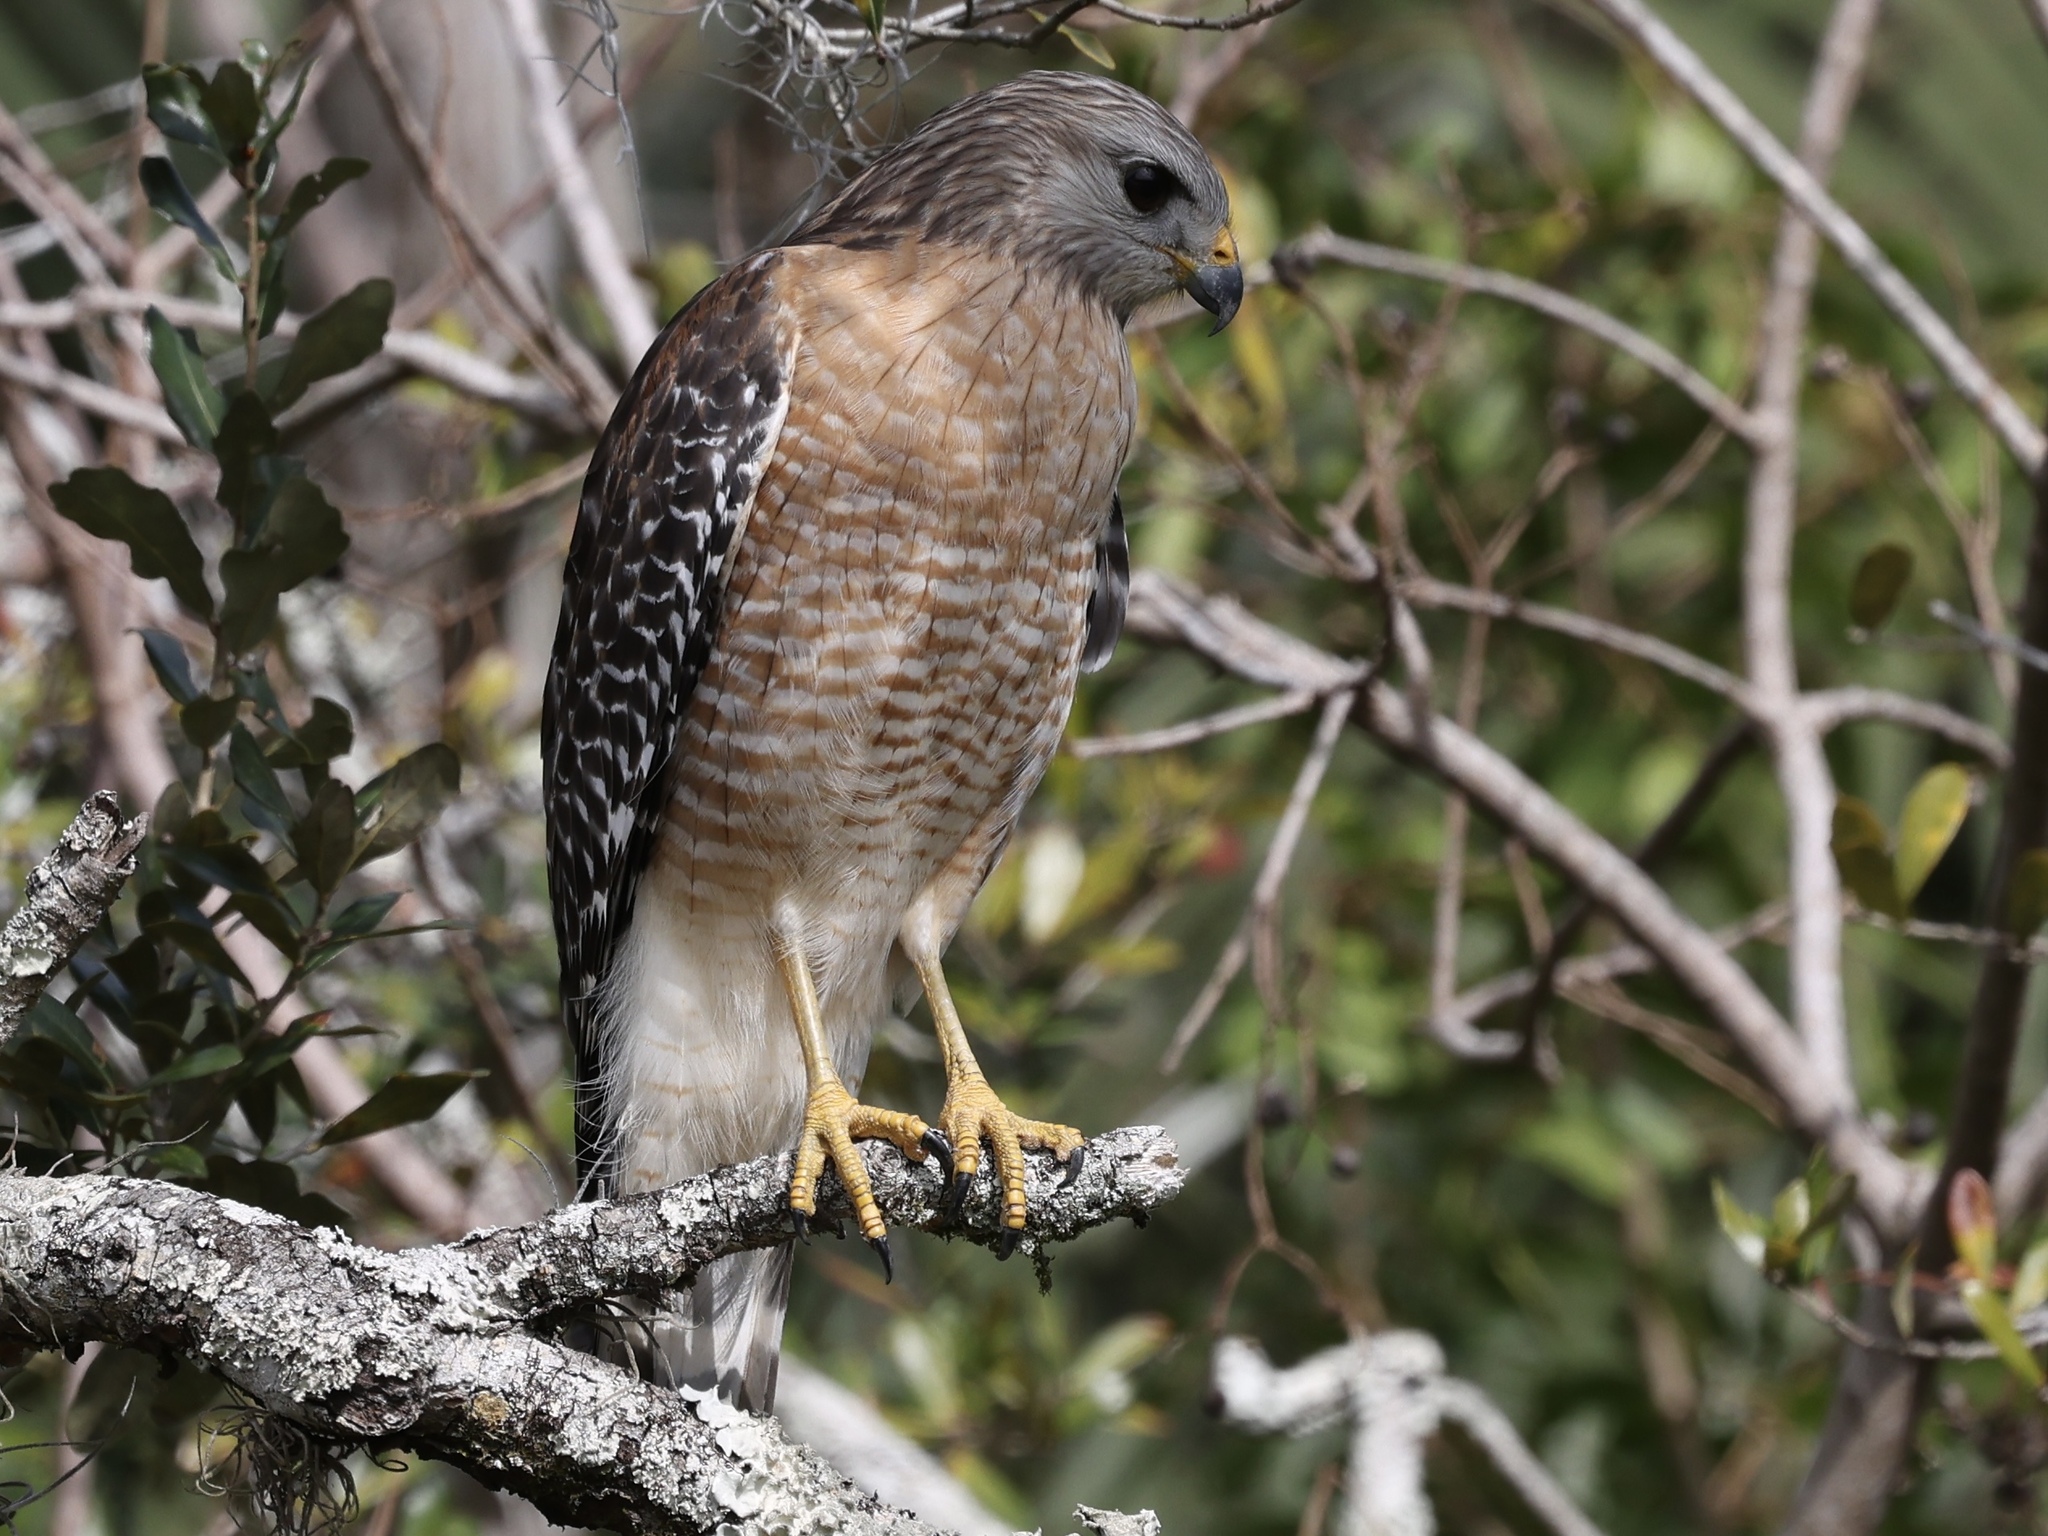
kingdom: Animalia
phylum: Chordata
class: Aves
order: Accipitriformes
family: Accipitridae
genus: Buteo
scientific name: Buteo lineatus
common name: Red-shouldered hawk
